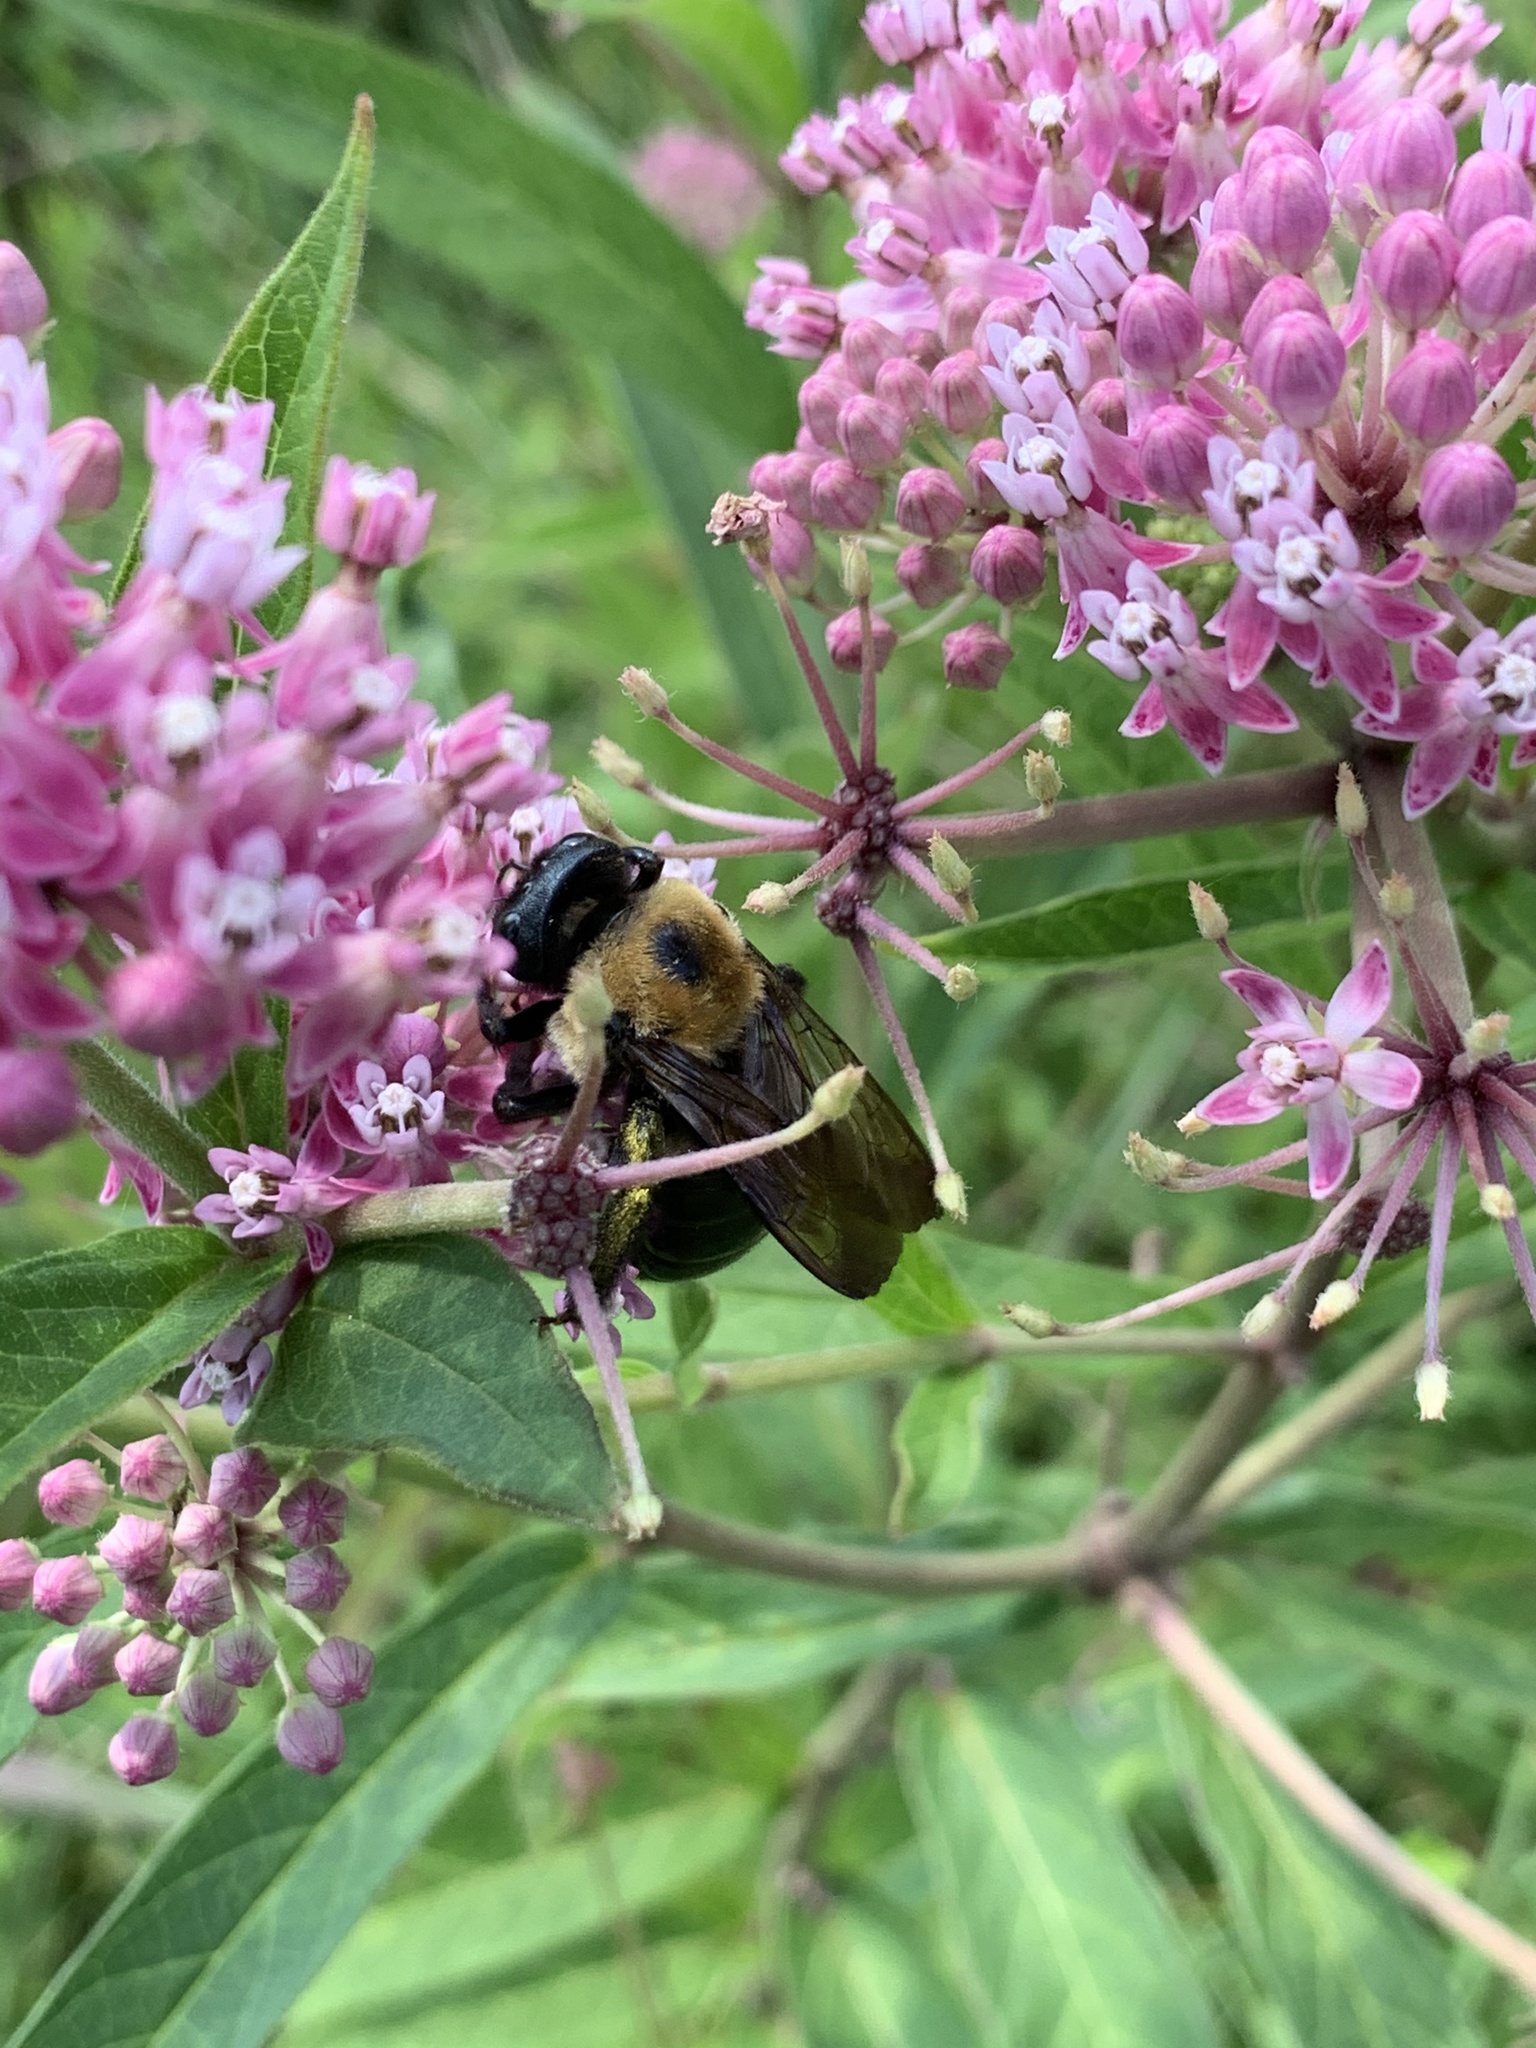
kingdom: Animalia
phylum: Arthropoda
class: Insecta
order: Hymenoptera
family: Apidae
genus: Xylocopa
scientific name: Xylocopa virginica
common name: Carpenter bee
